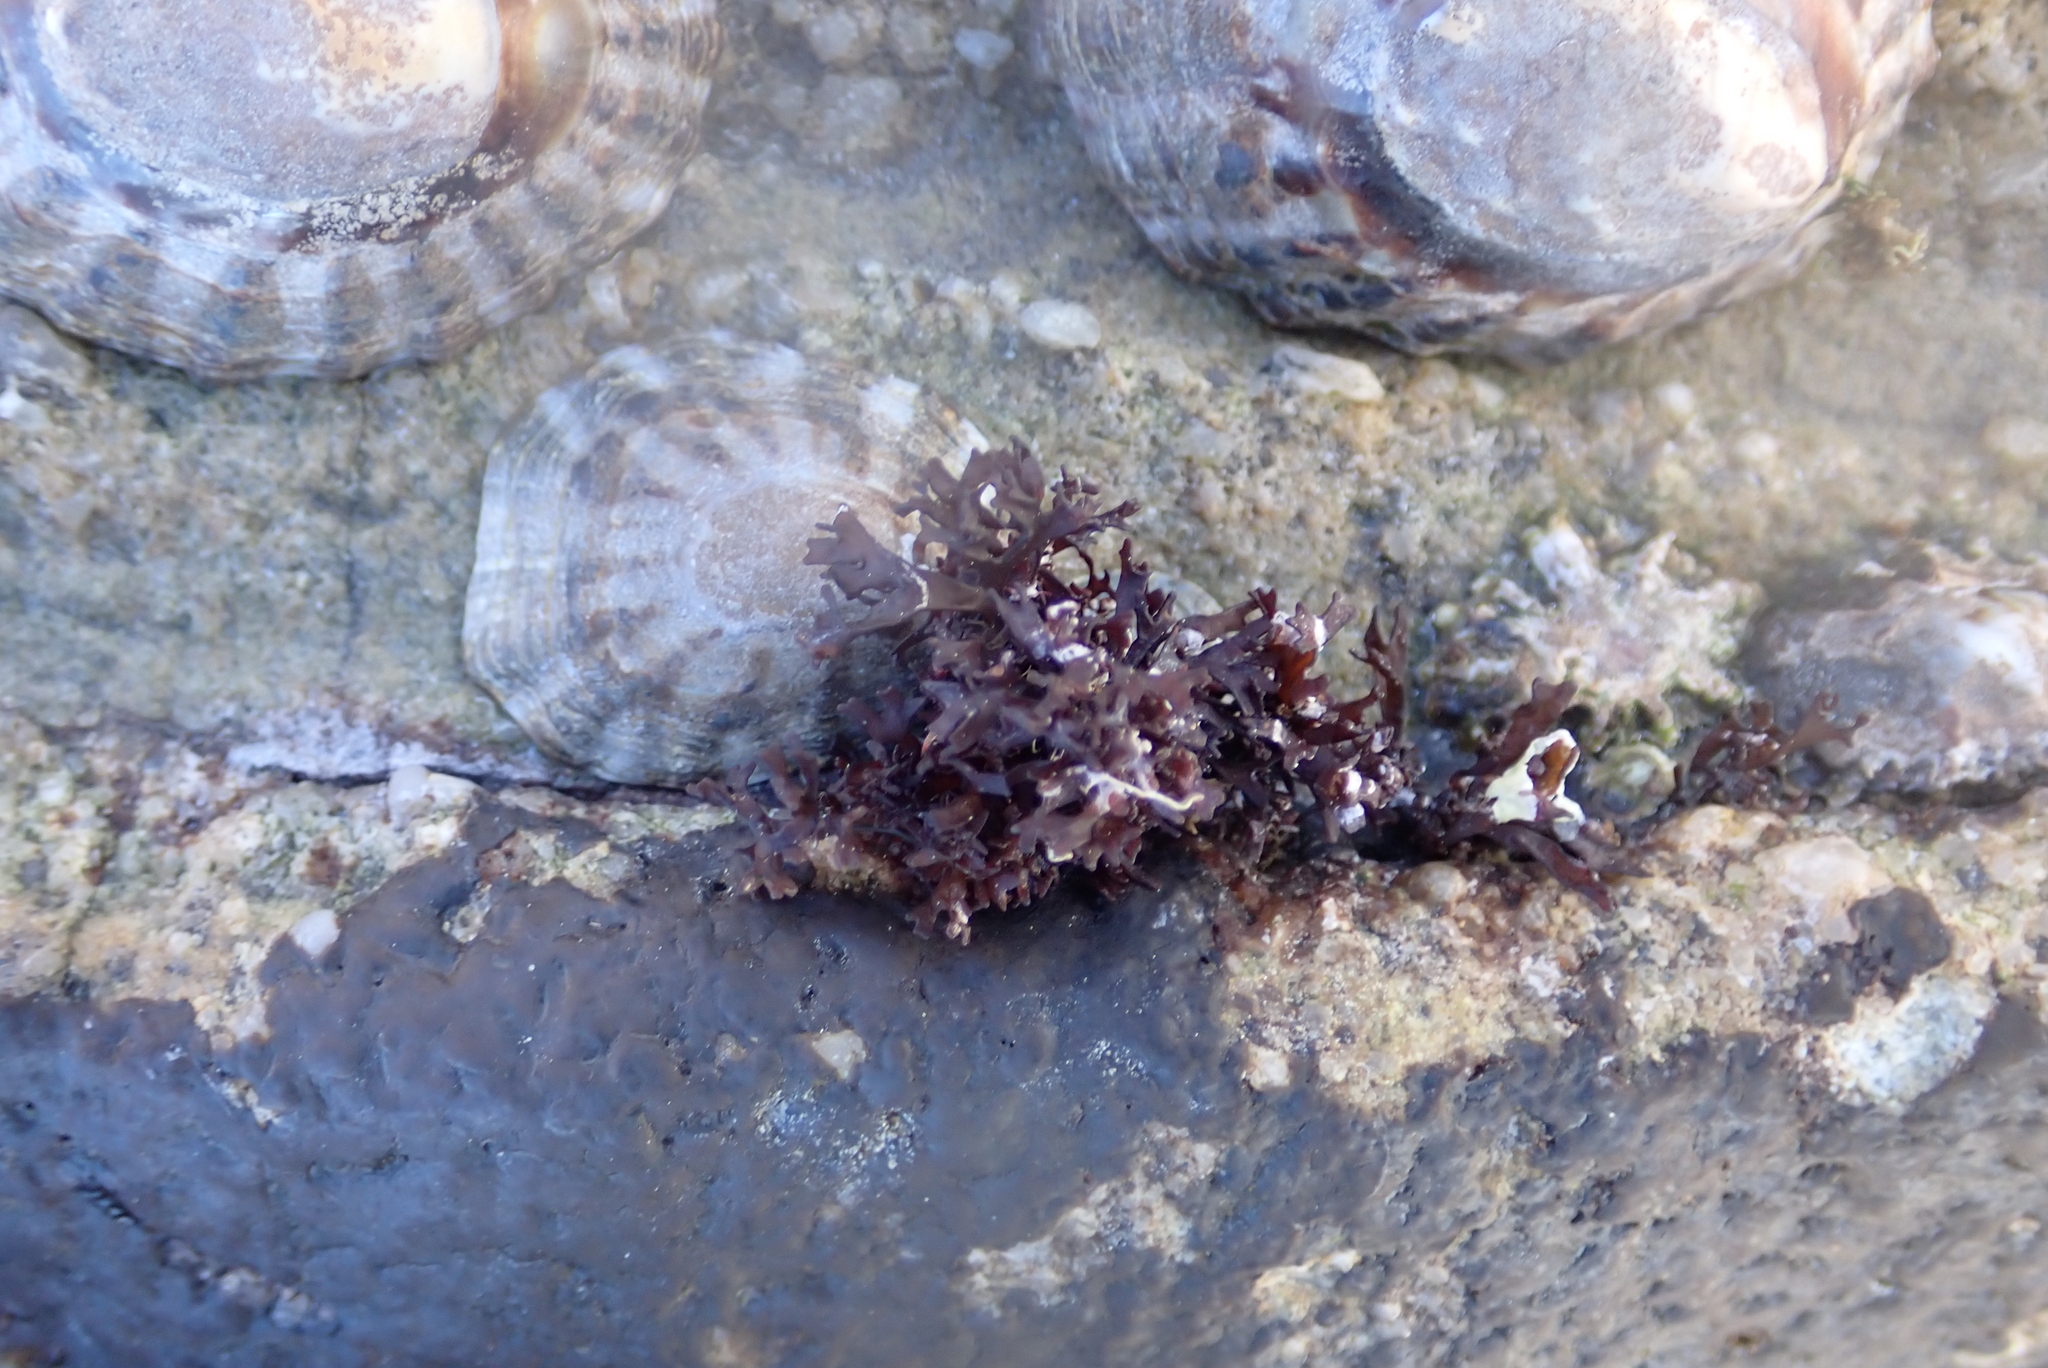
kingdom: Animalia
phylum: Mollusca
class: Gastropoda
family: Nacellidae
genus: Cellana
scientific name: Cellana strigilis
